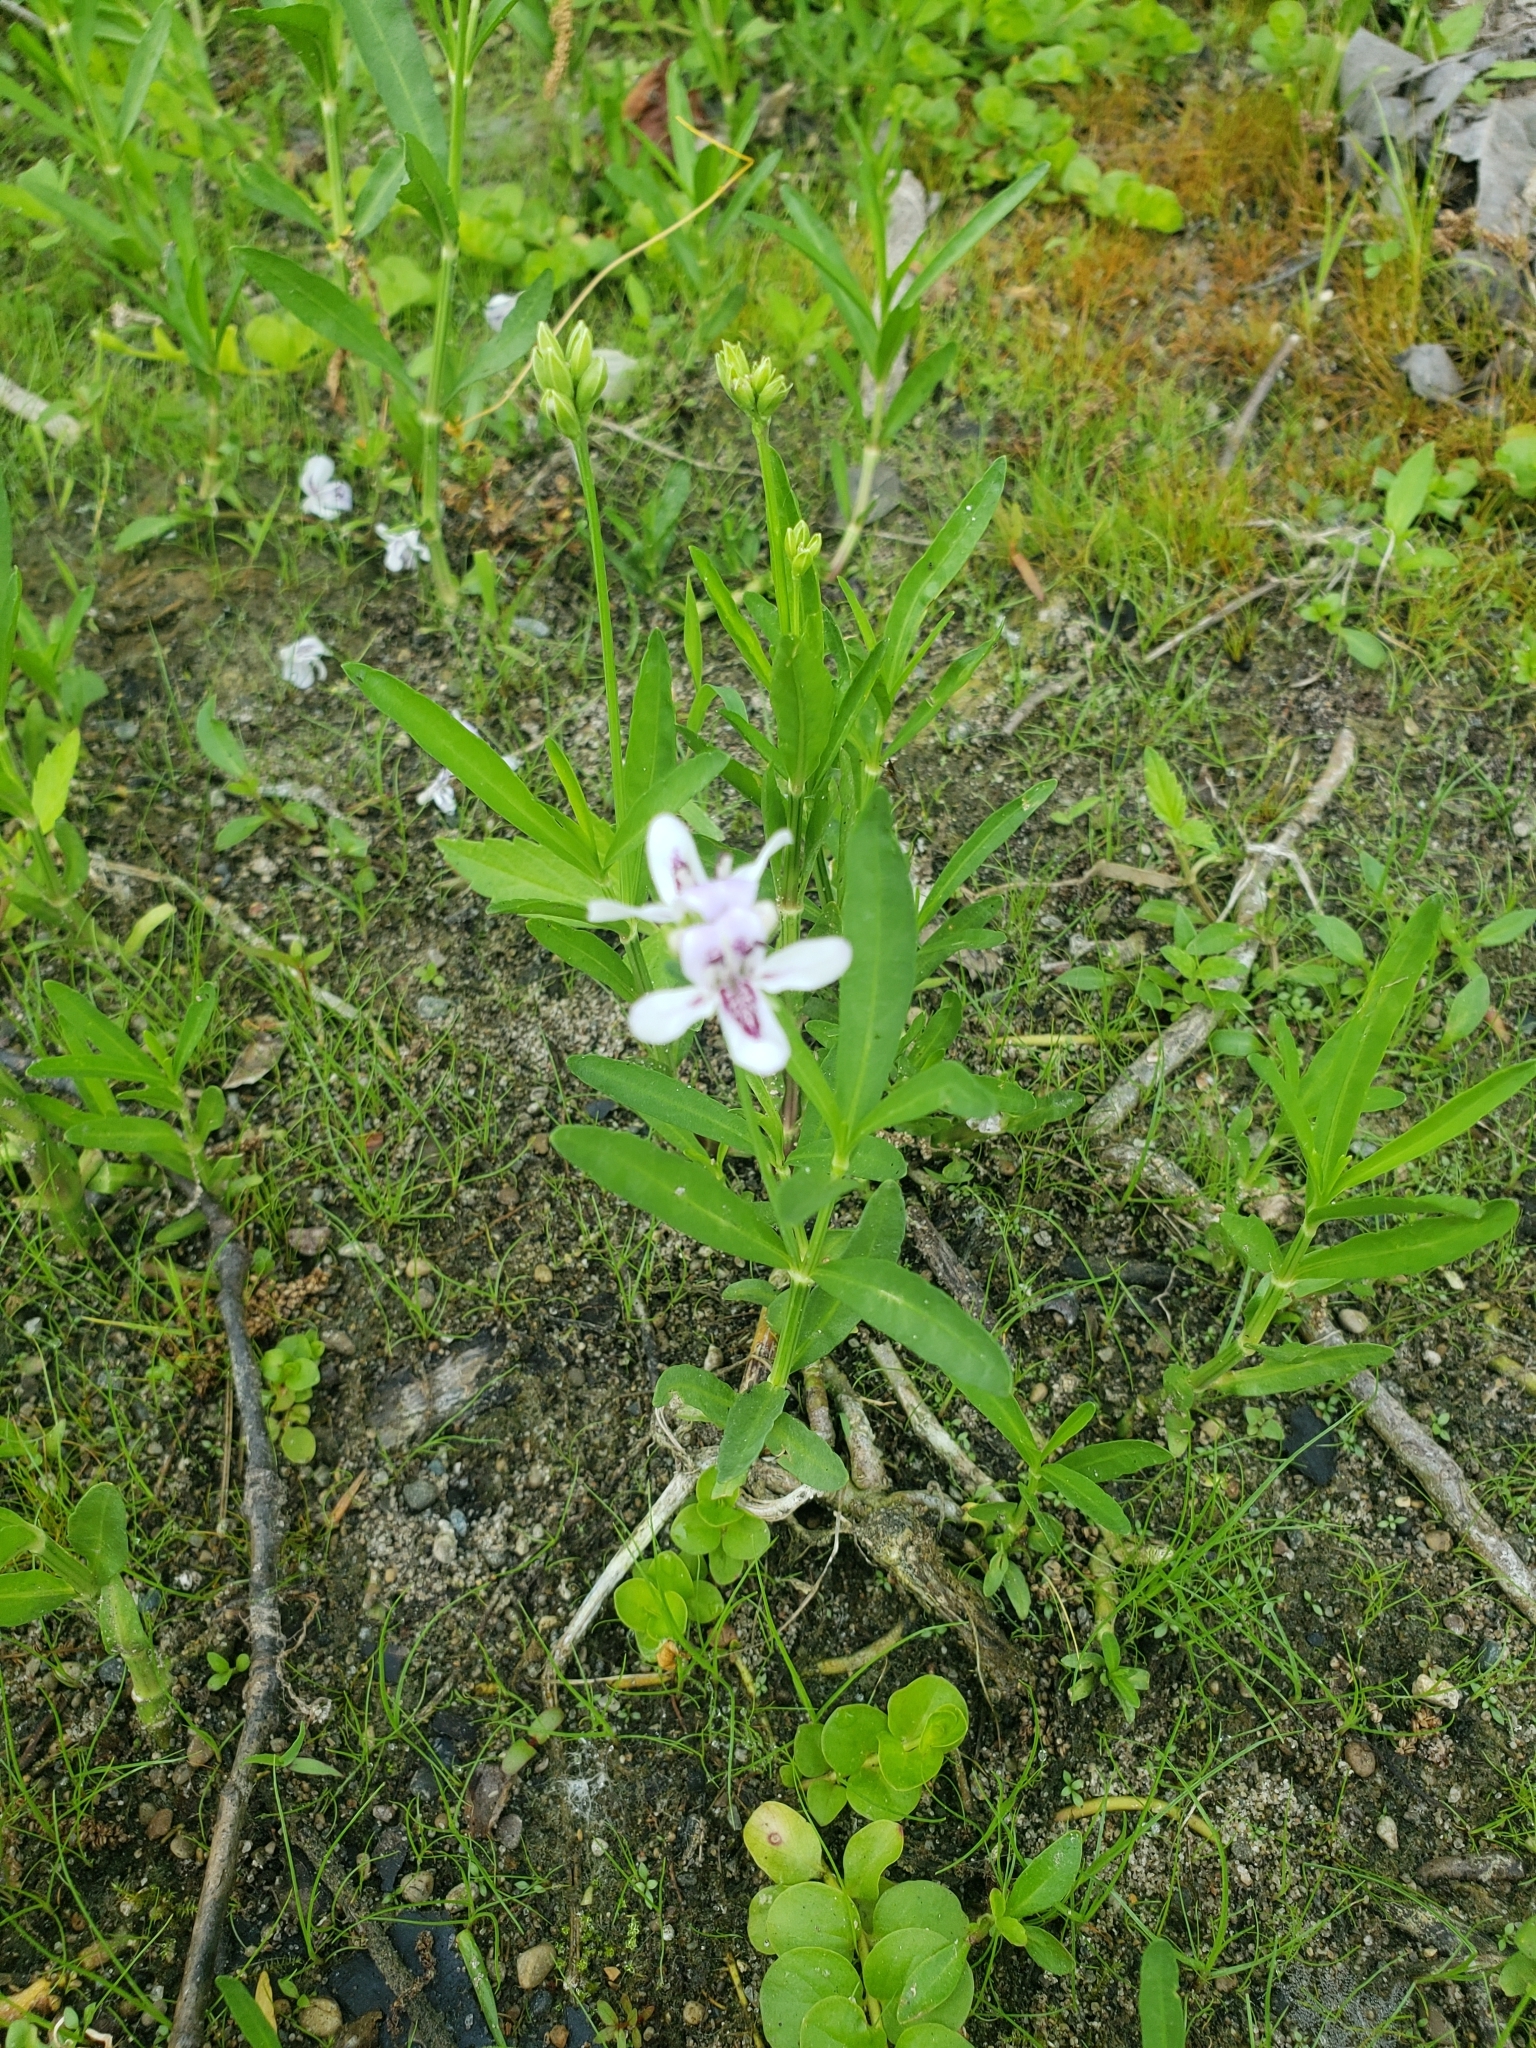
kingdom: Plantae
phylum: Tracheophyta
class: Magnoliopsida
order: Lamiales
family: Acanthaceae
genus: Dianthera
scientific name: Dianthera americana
